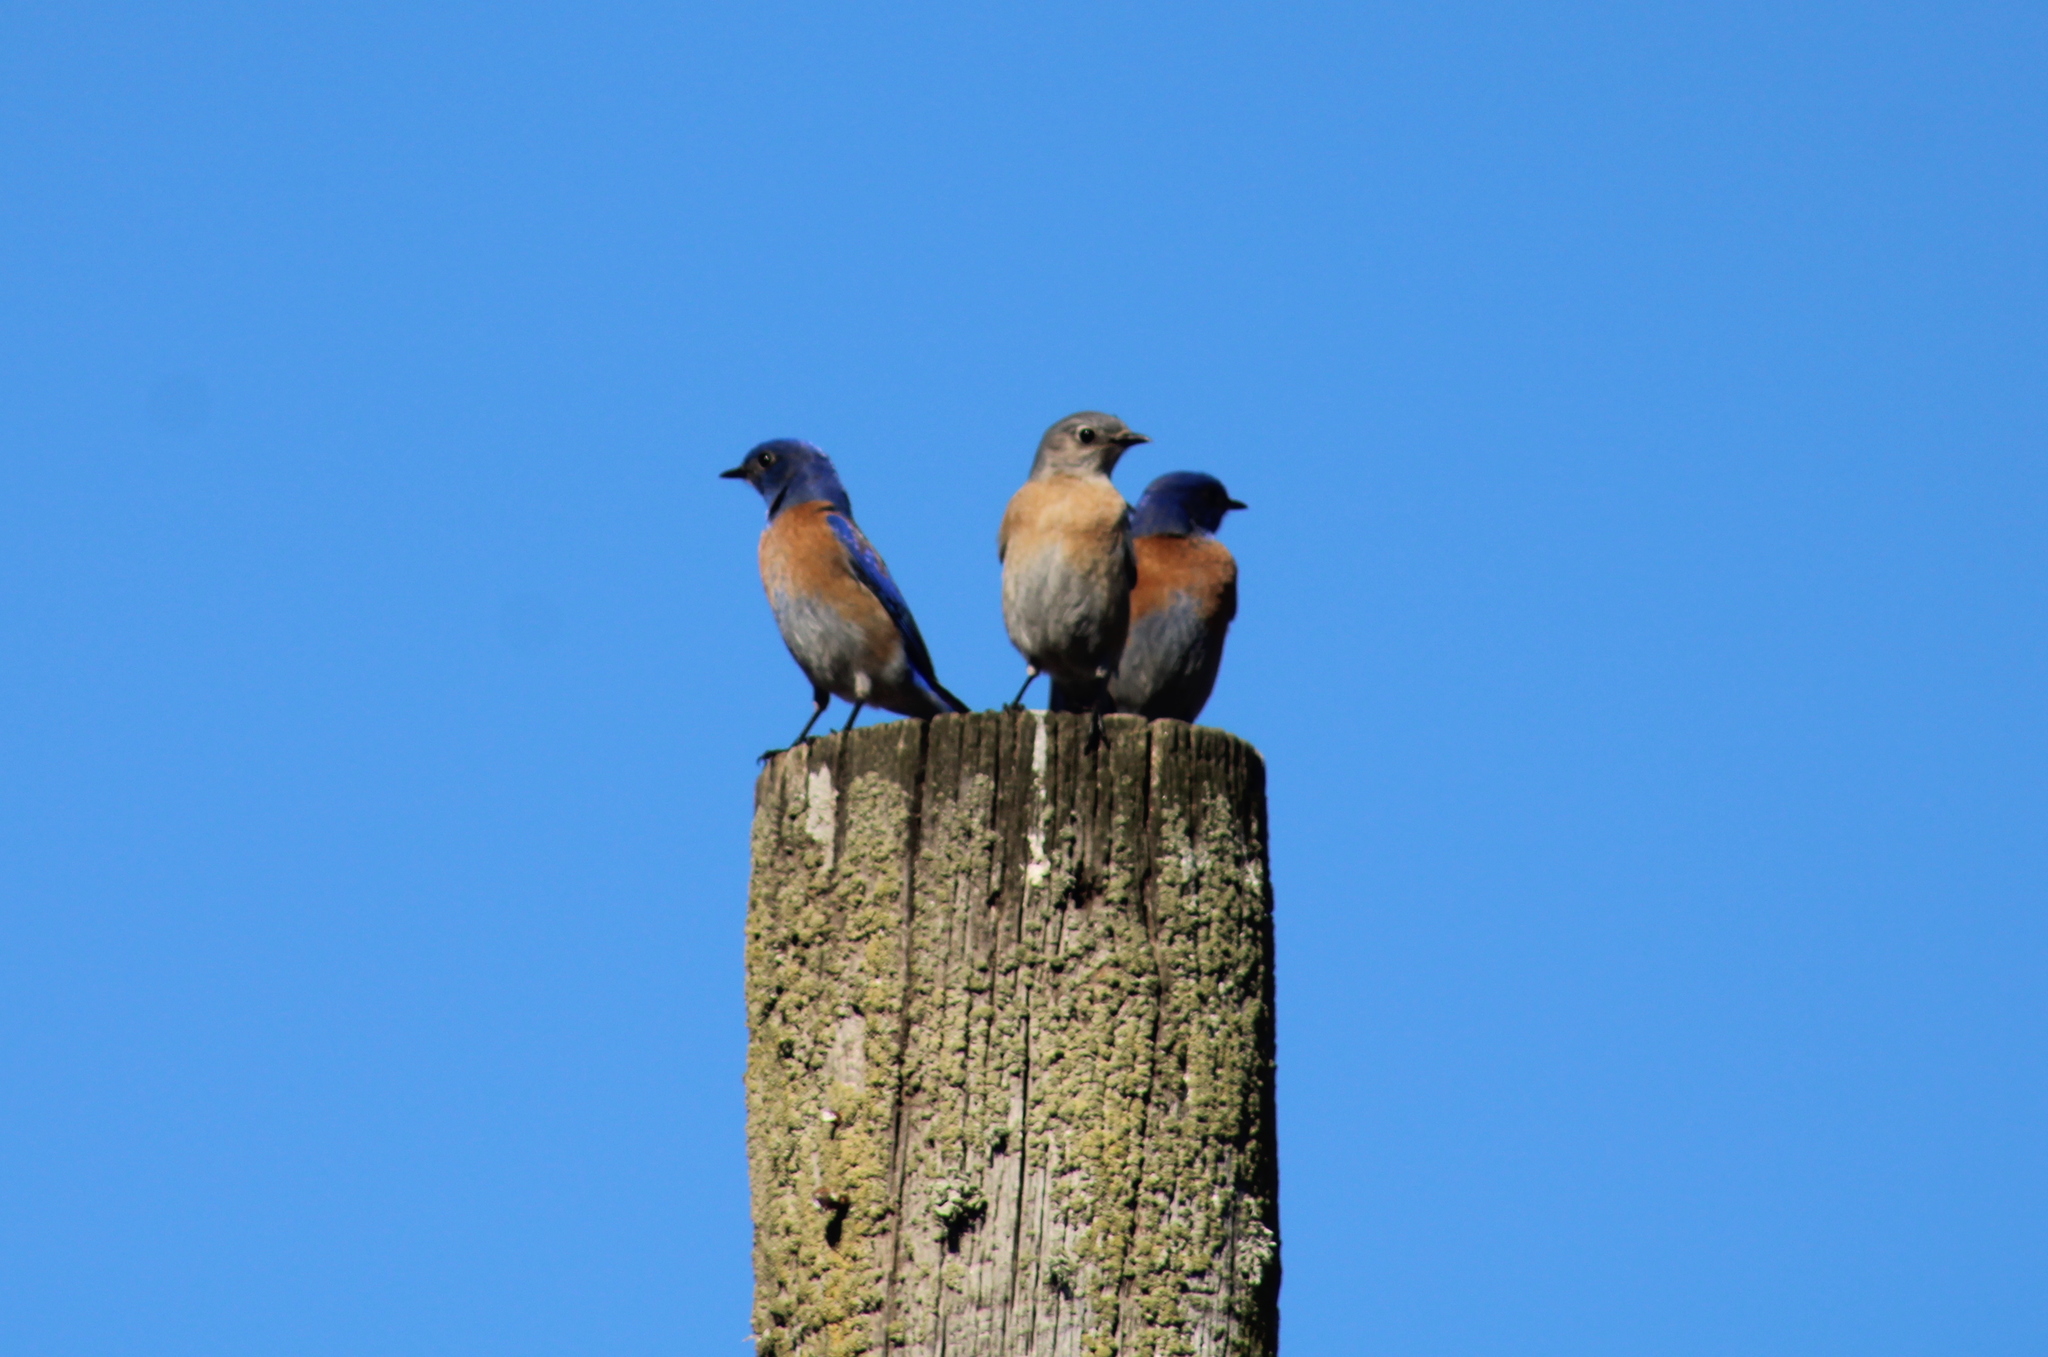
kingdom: Animalia
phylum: Chordata
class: Aves
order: Passeriformes
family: Turdidae
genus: Sialia
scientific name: Sialia mexicana
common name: Western bluebird
